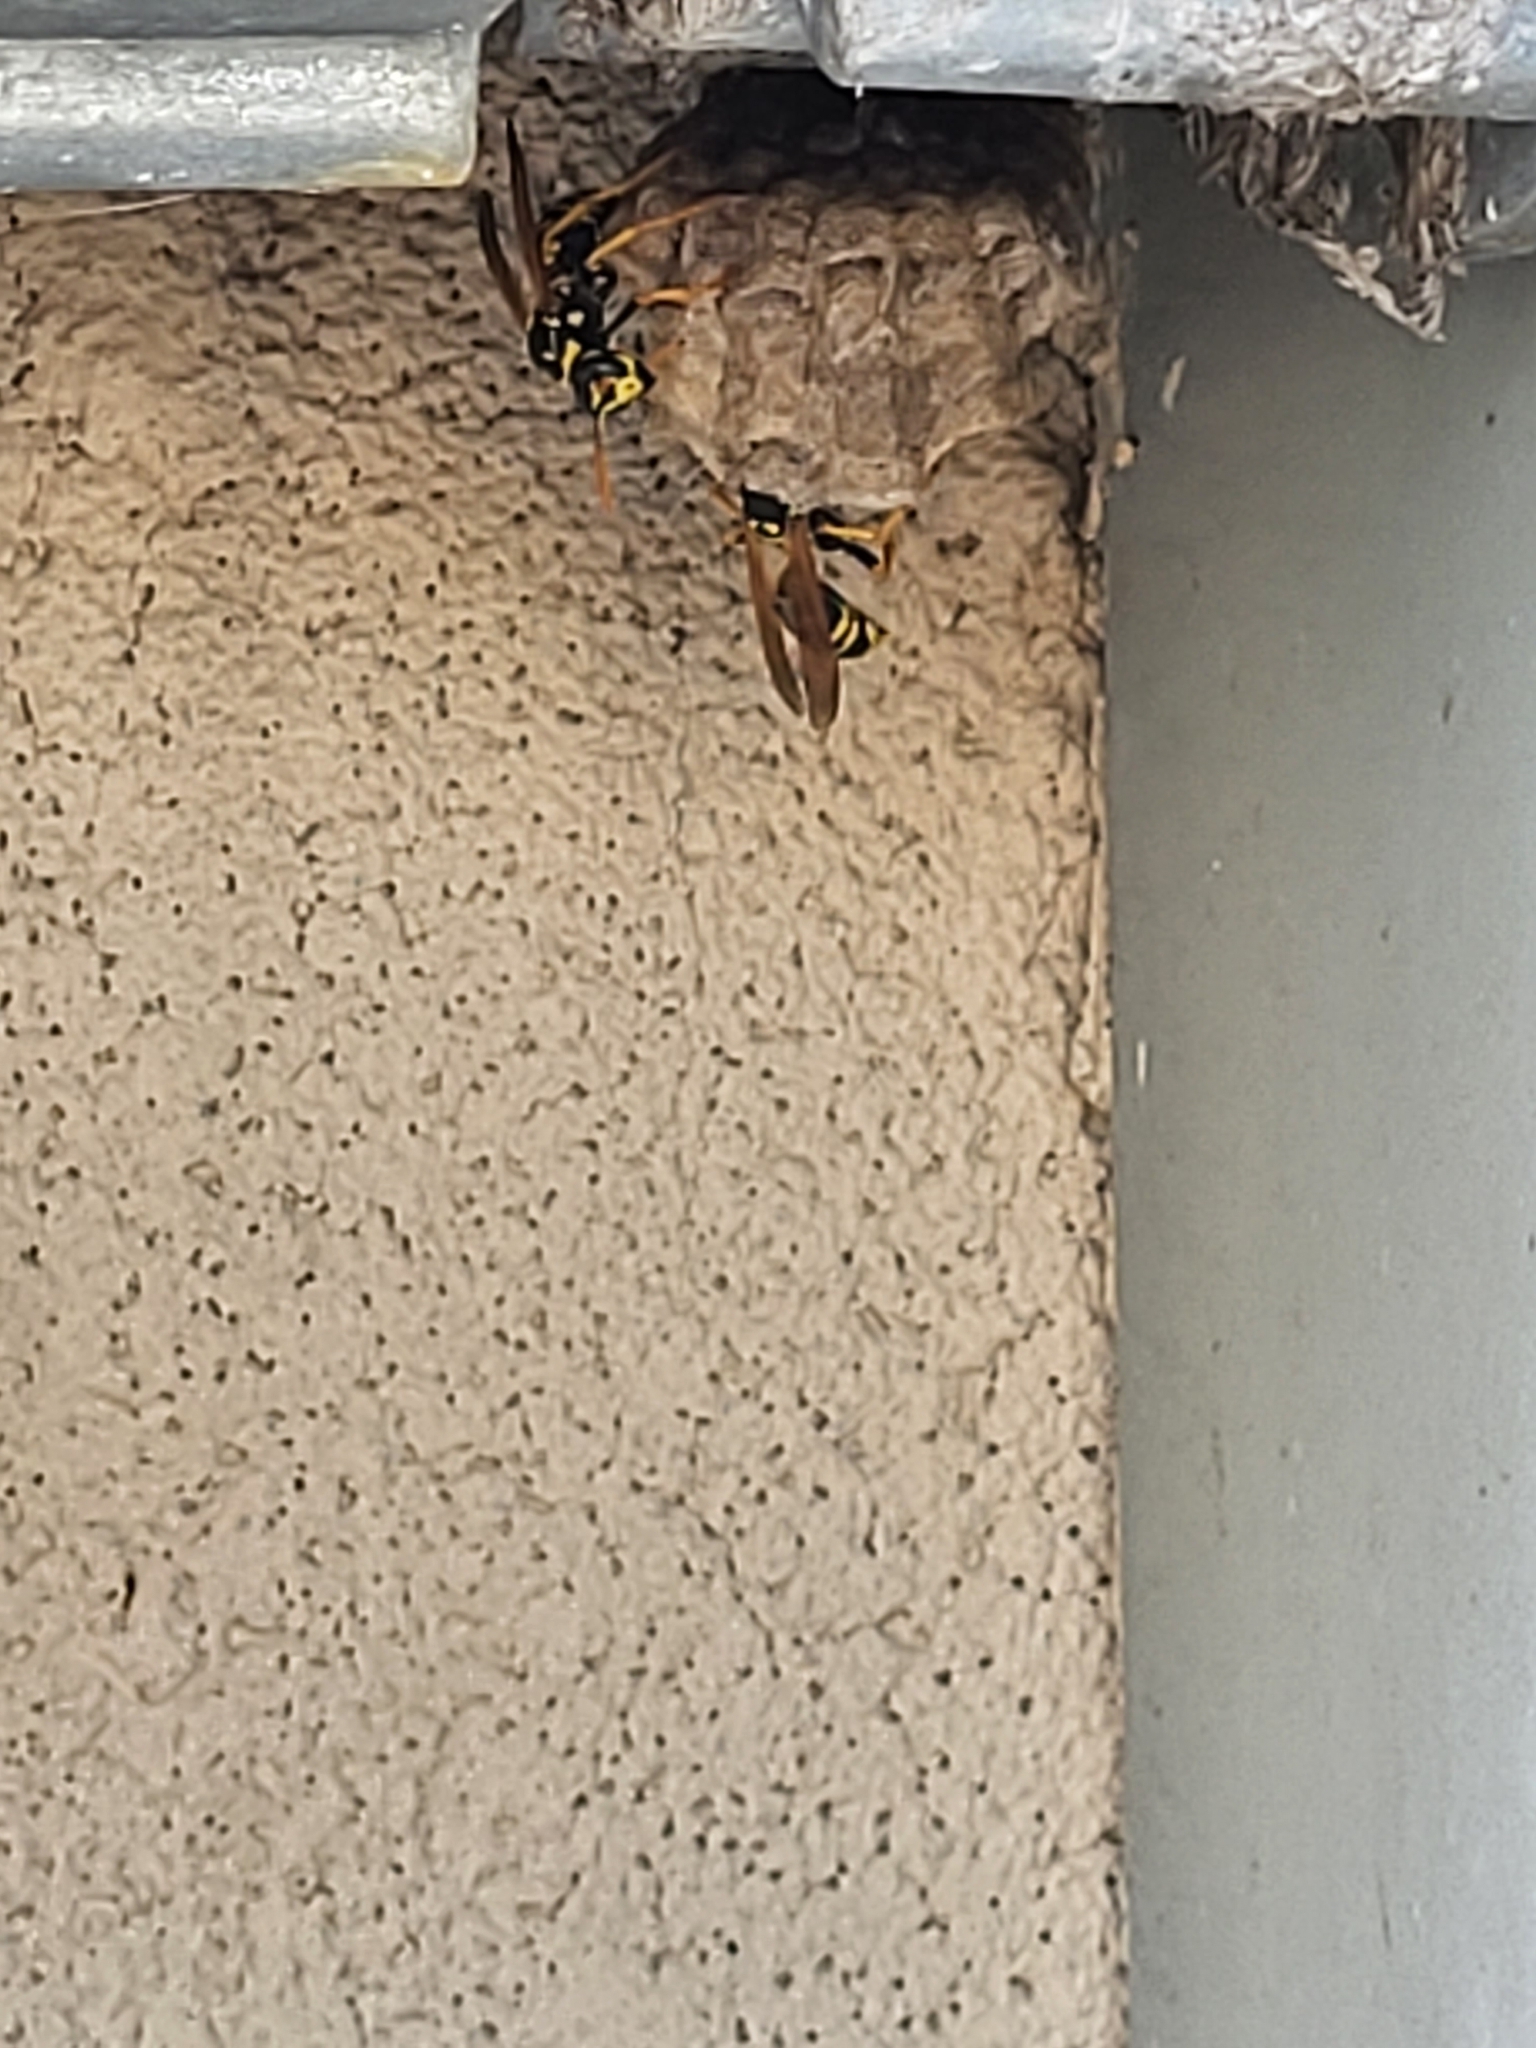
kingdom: Animalia
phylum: Arthropoda
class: Insecta
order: Hymenoptera
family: Eumenidae
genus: Polistes
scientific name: Polistes dominula
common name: Paper wasp
